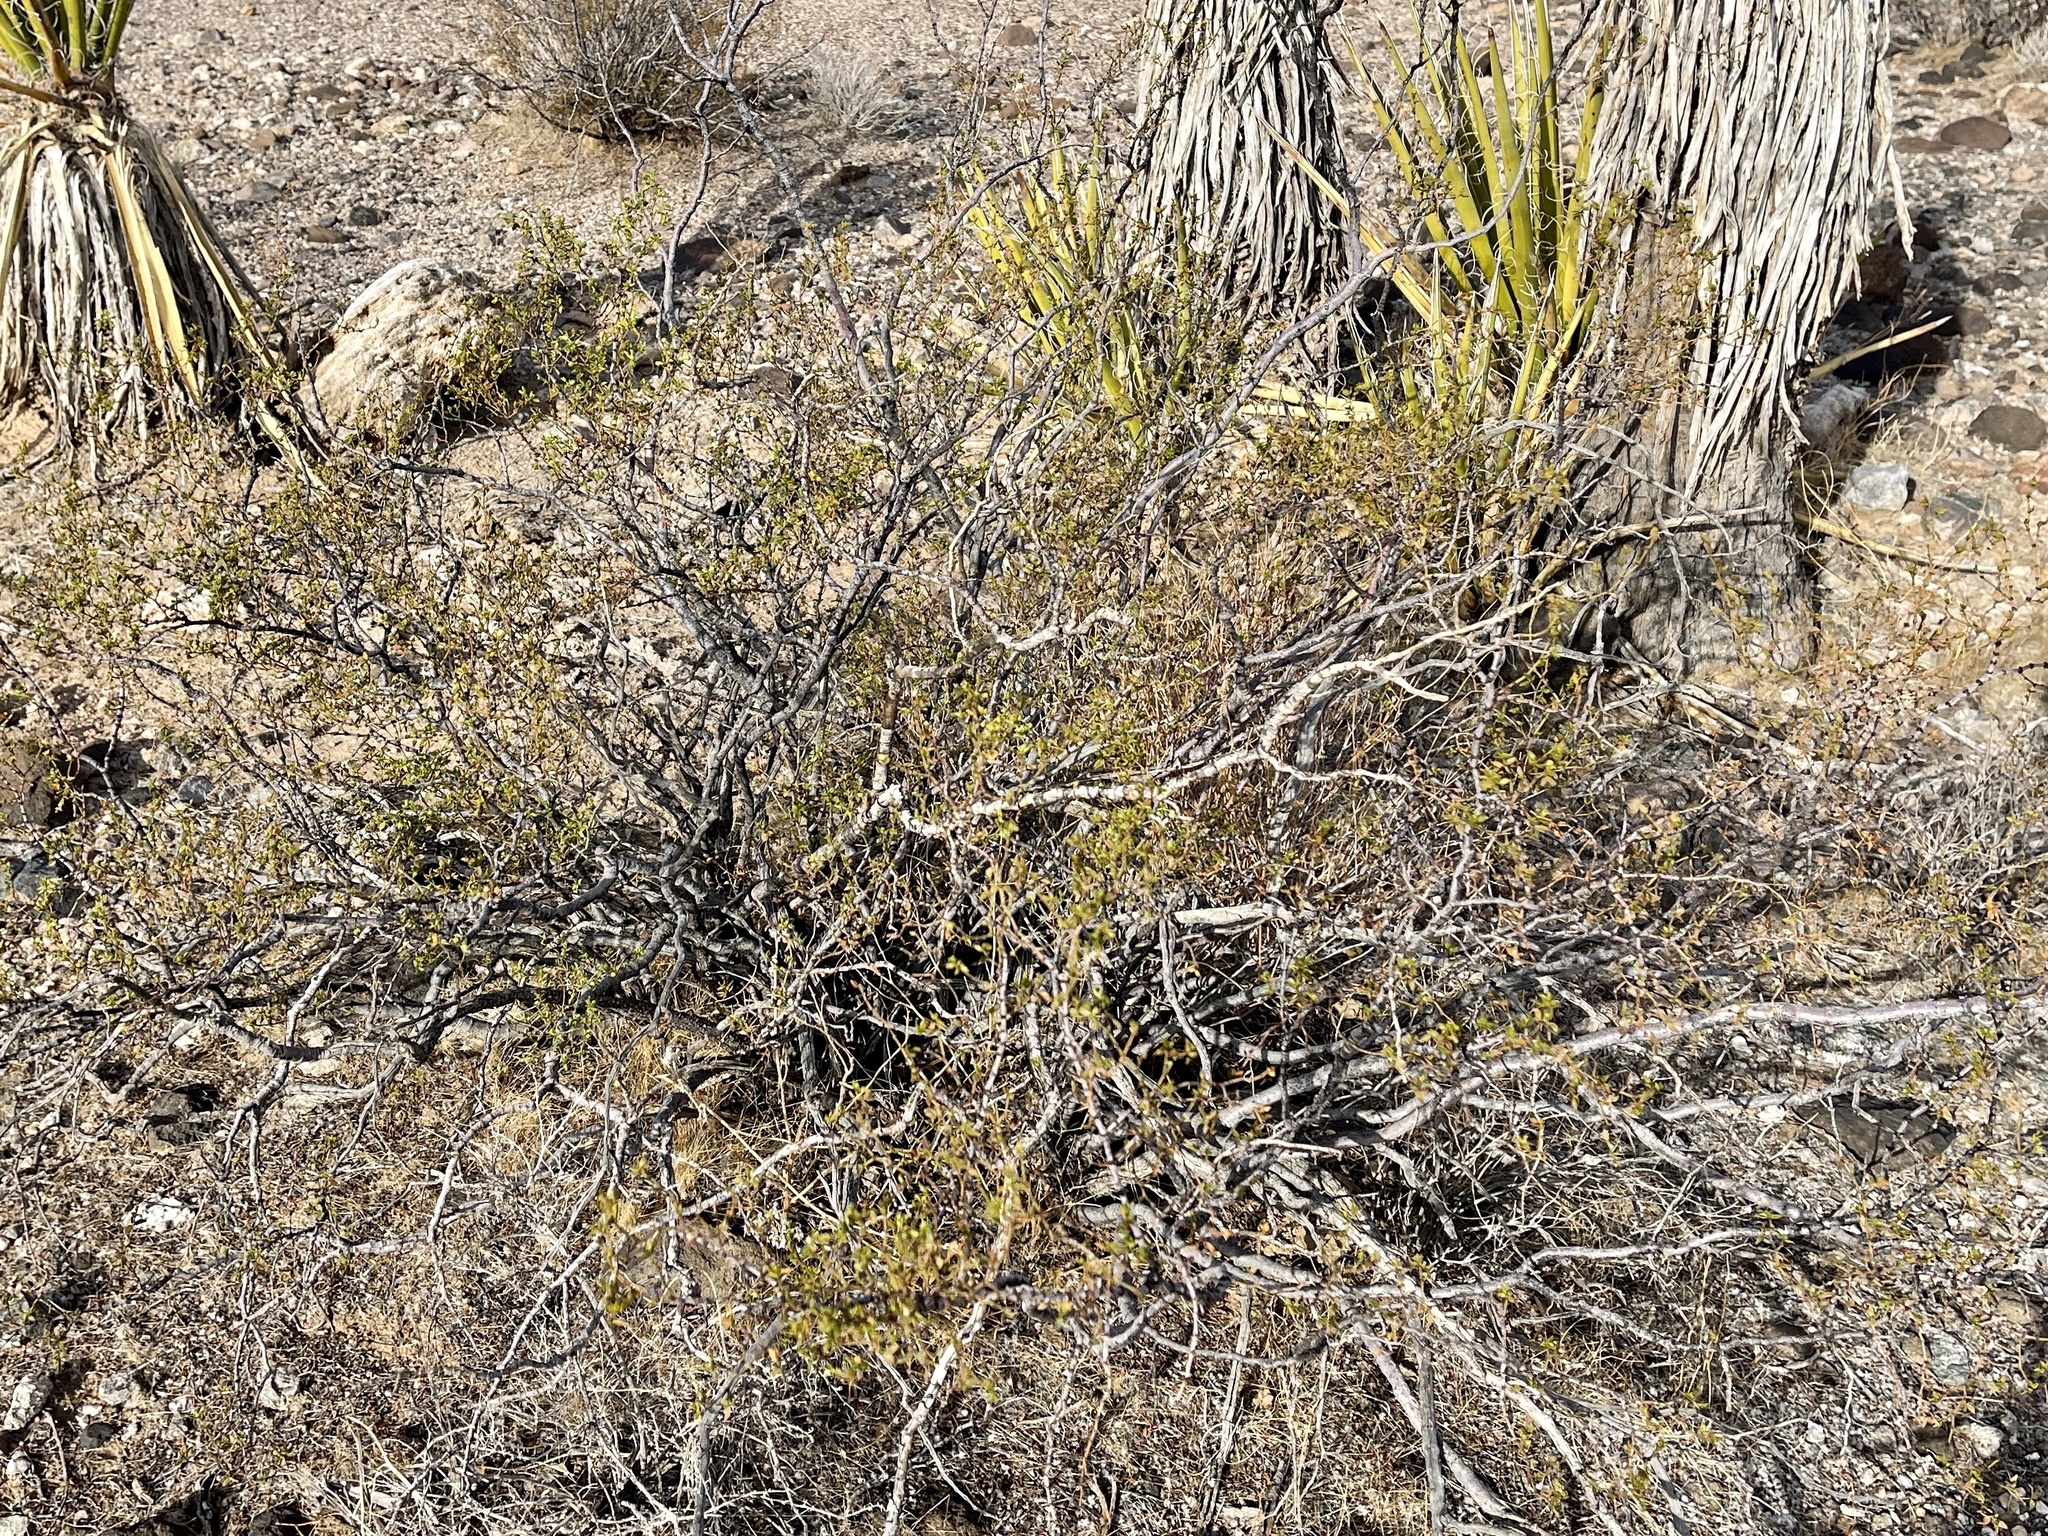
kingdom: Plantae
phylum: Tracheophyta
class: Magnoliopsida
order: Zygophyllales
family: Zygophyllaceae
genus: Larrea
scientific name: Larrea tridentata
